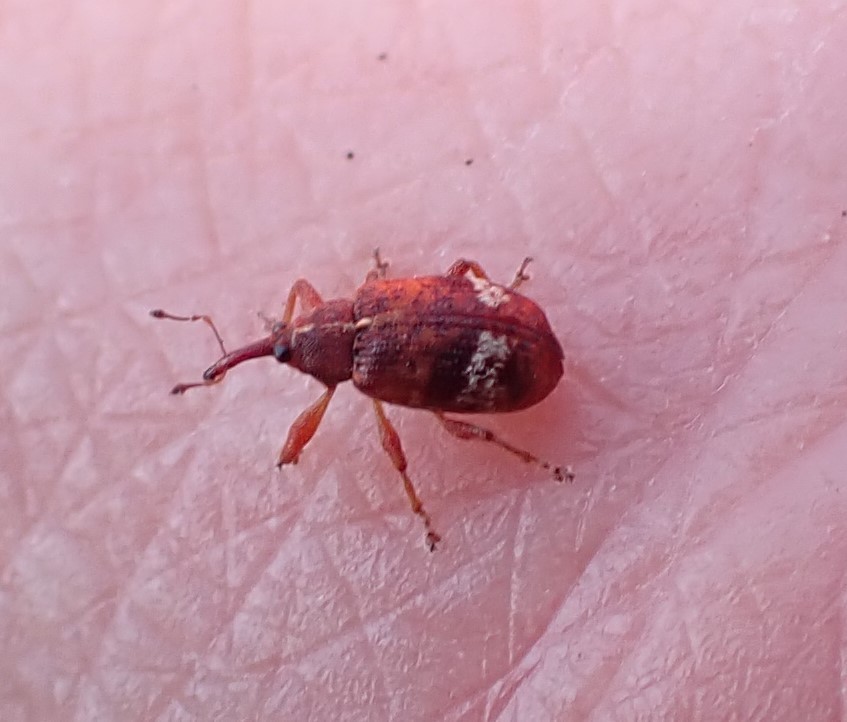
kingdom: Animalia
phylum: Arthropoda
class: Insecta
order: Coleoptera
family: Curculionidae
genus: Anthonomus
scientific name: Anthonomus pedicularius
